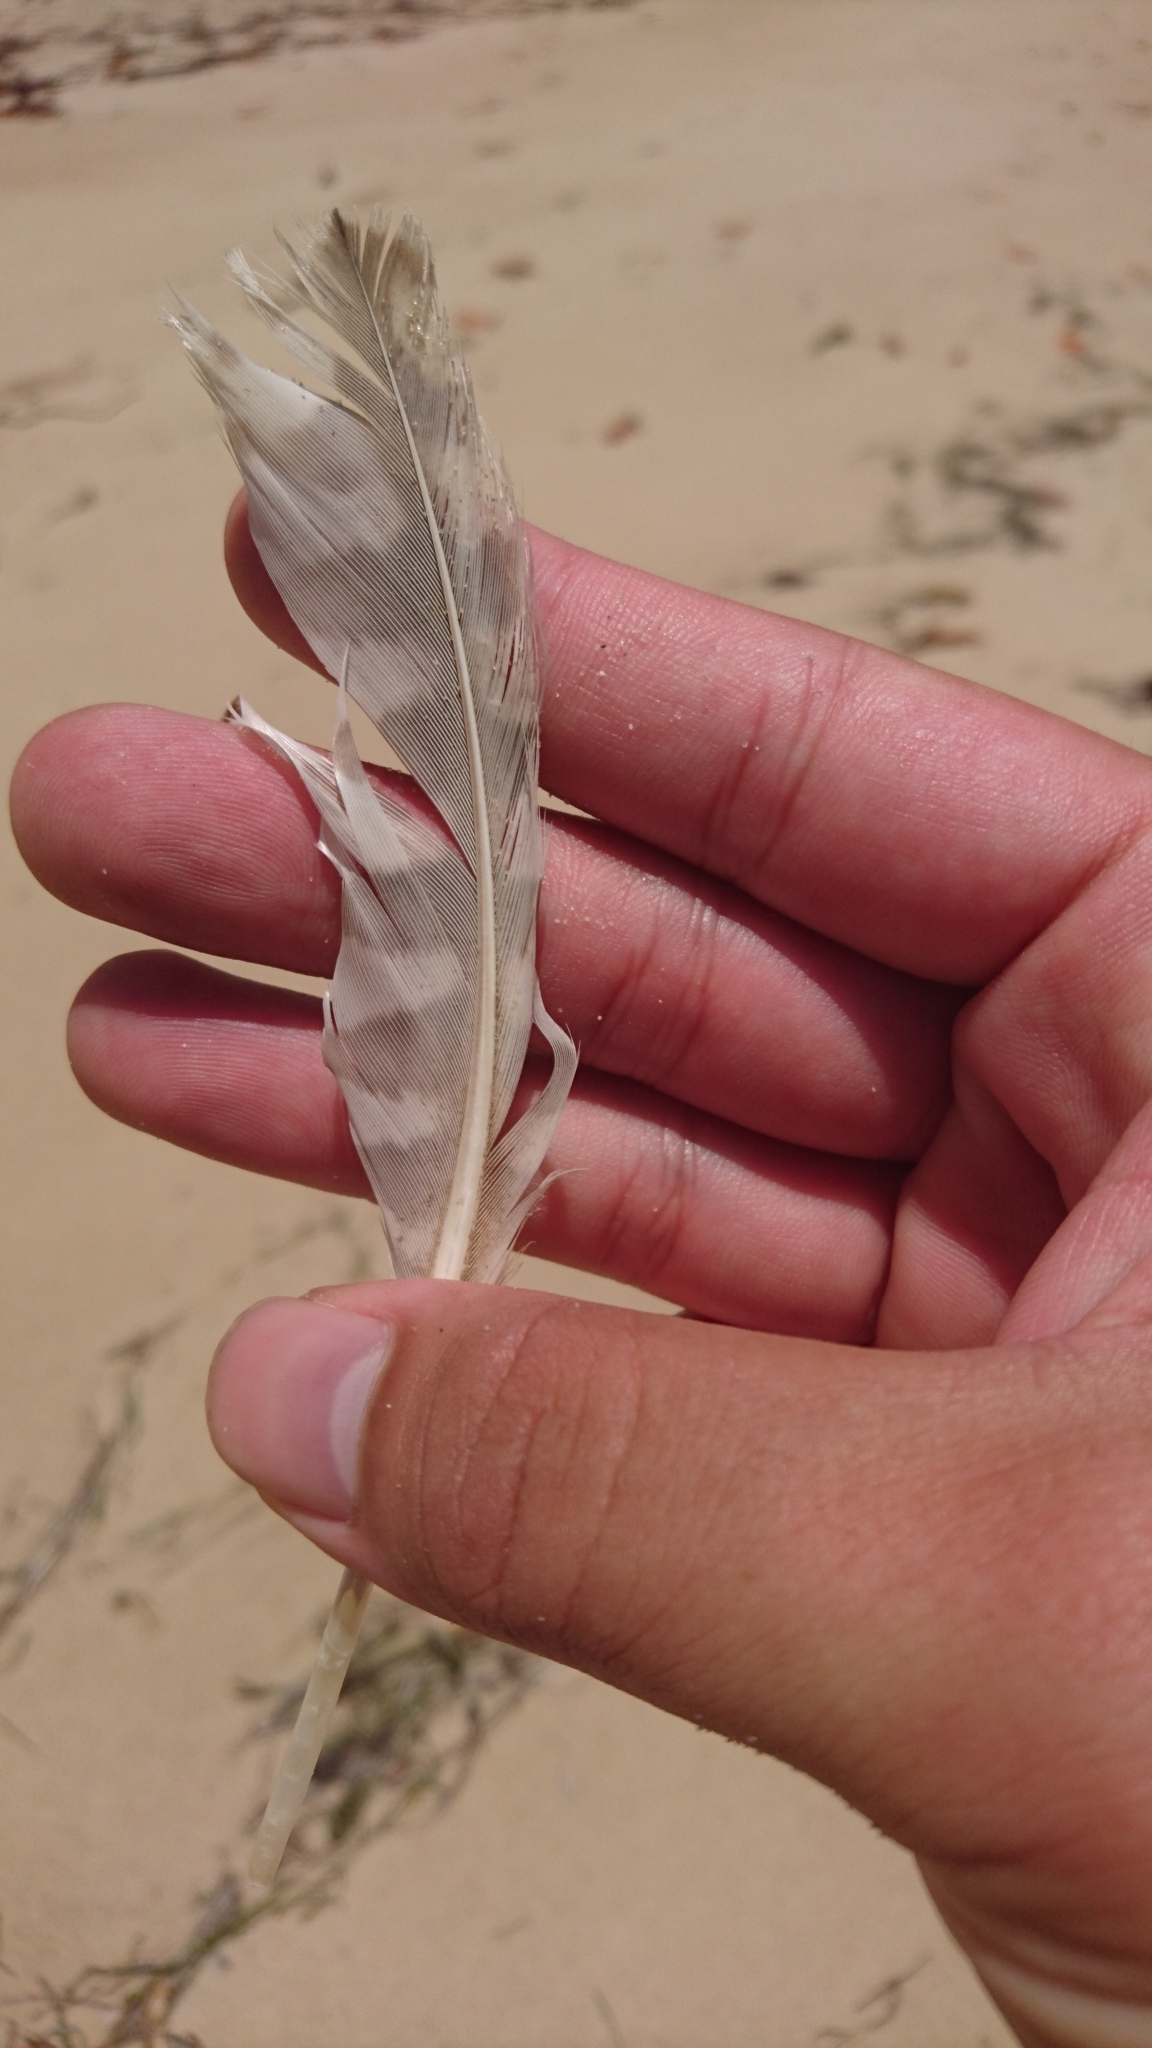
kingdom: Animalia
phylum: Chordata
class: Aves
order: Charadriiformes
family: Scolopacidae
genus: Numenius
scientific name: Numenius madagascariensis
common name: Far eastern curlew
